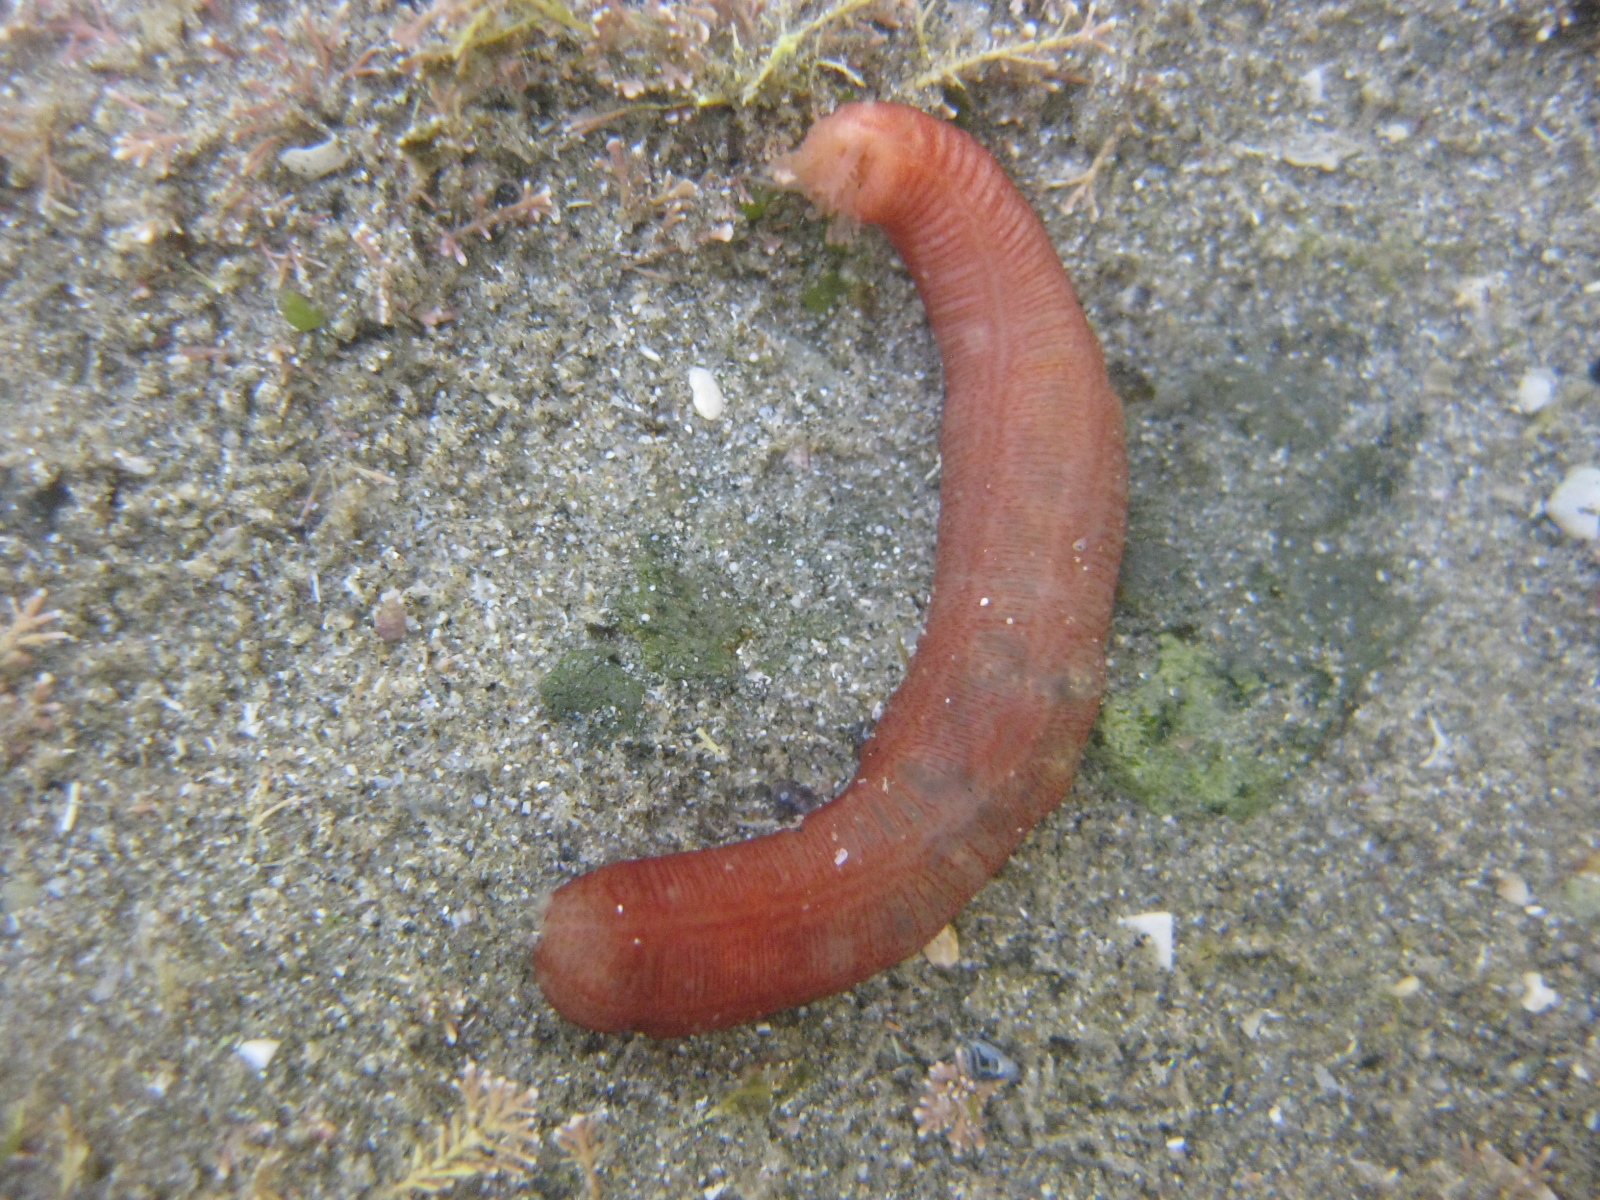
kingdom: Animalia
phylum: Echinodermata
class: Holothuroidea
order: Apodida
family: Chiridotidae
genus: Taeniogyrus
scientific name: Taeniogyrus dunedinensis
